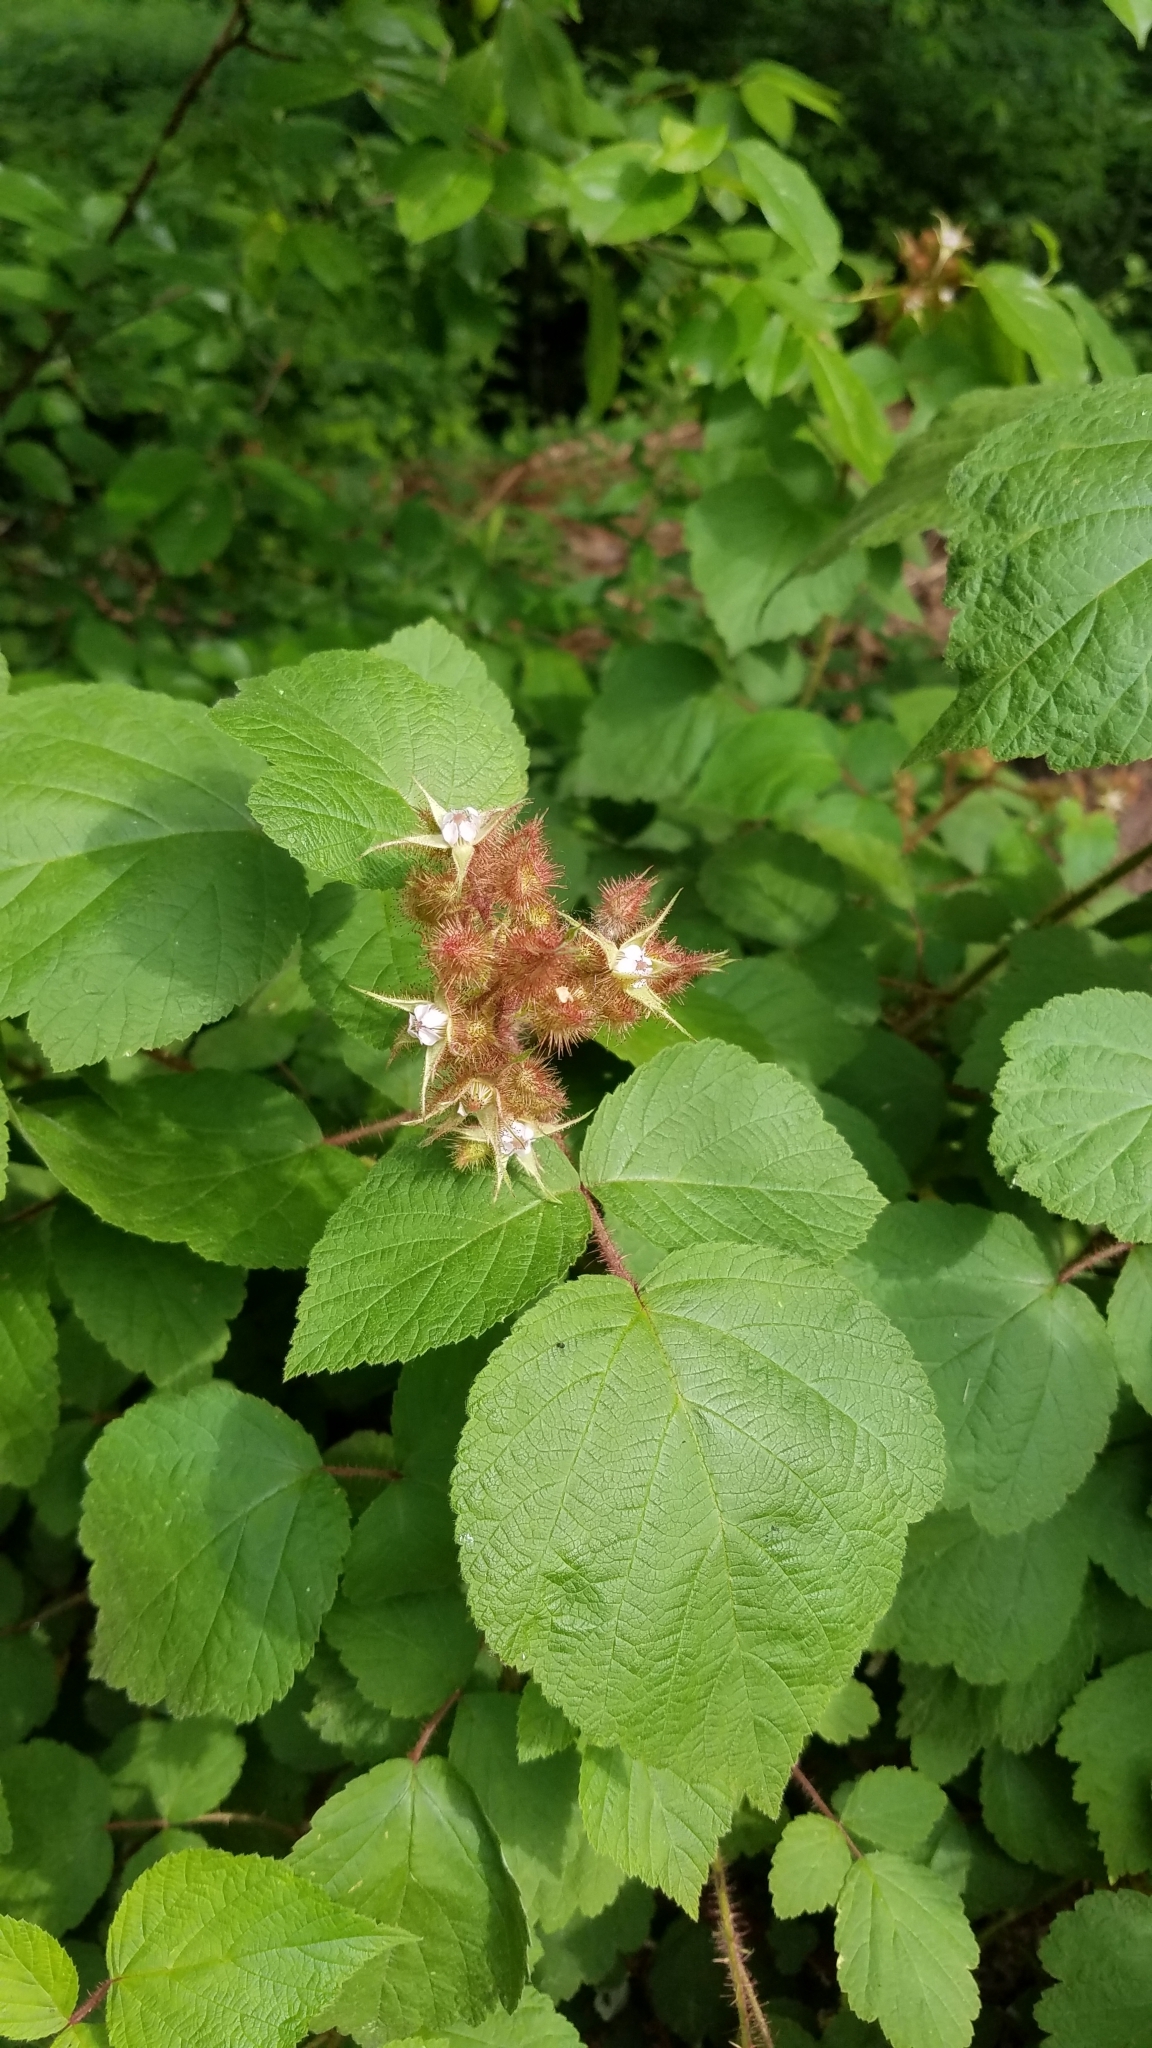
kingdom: Plantae
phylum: Tracheophyta
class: Magnoliopsida
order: Rosales
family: Rosaceae
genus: Rubus
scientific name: Rubus phoenicolasius
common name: Japanese wineberry
